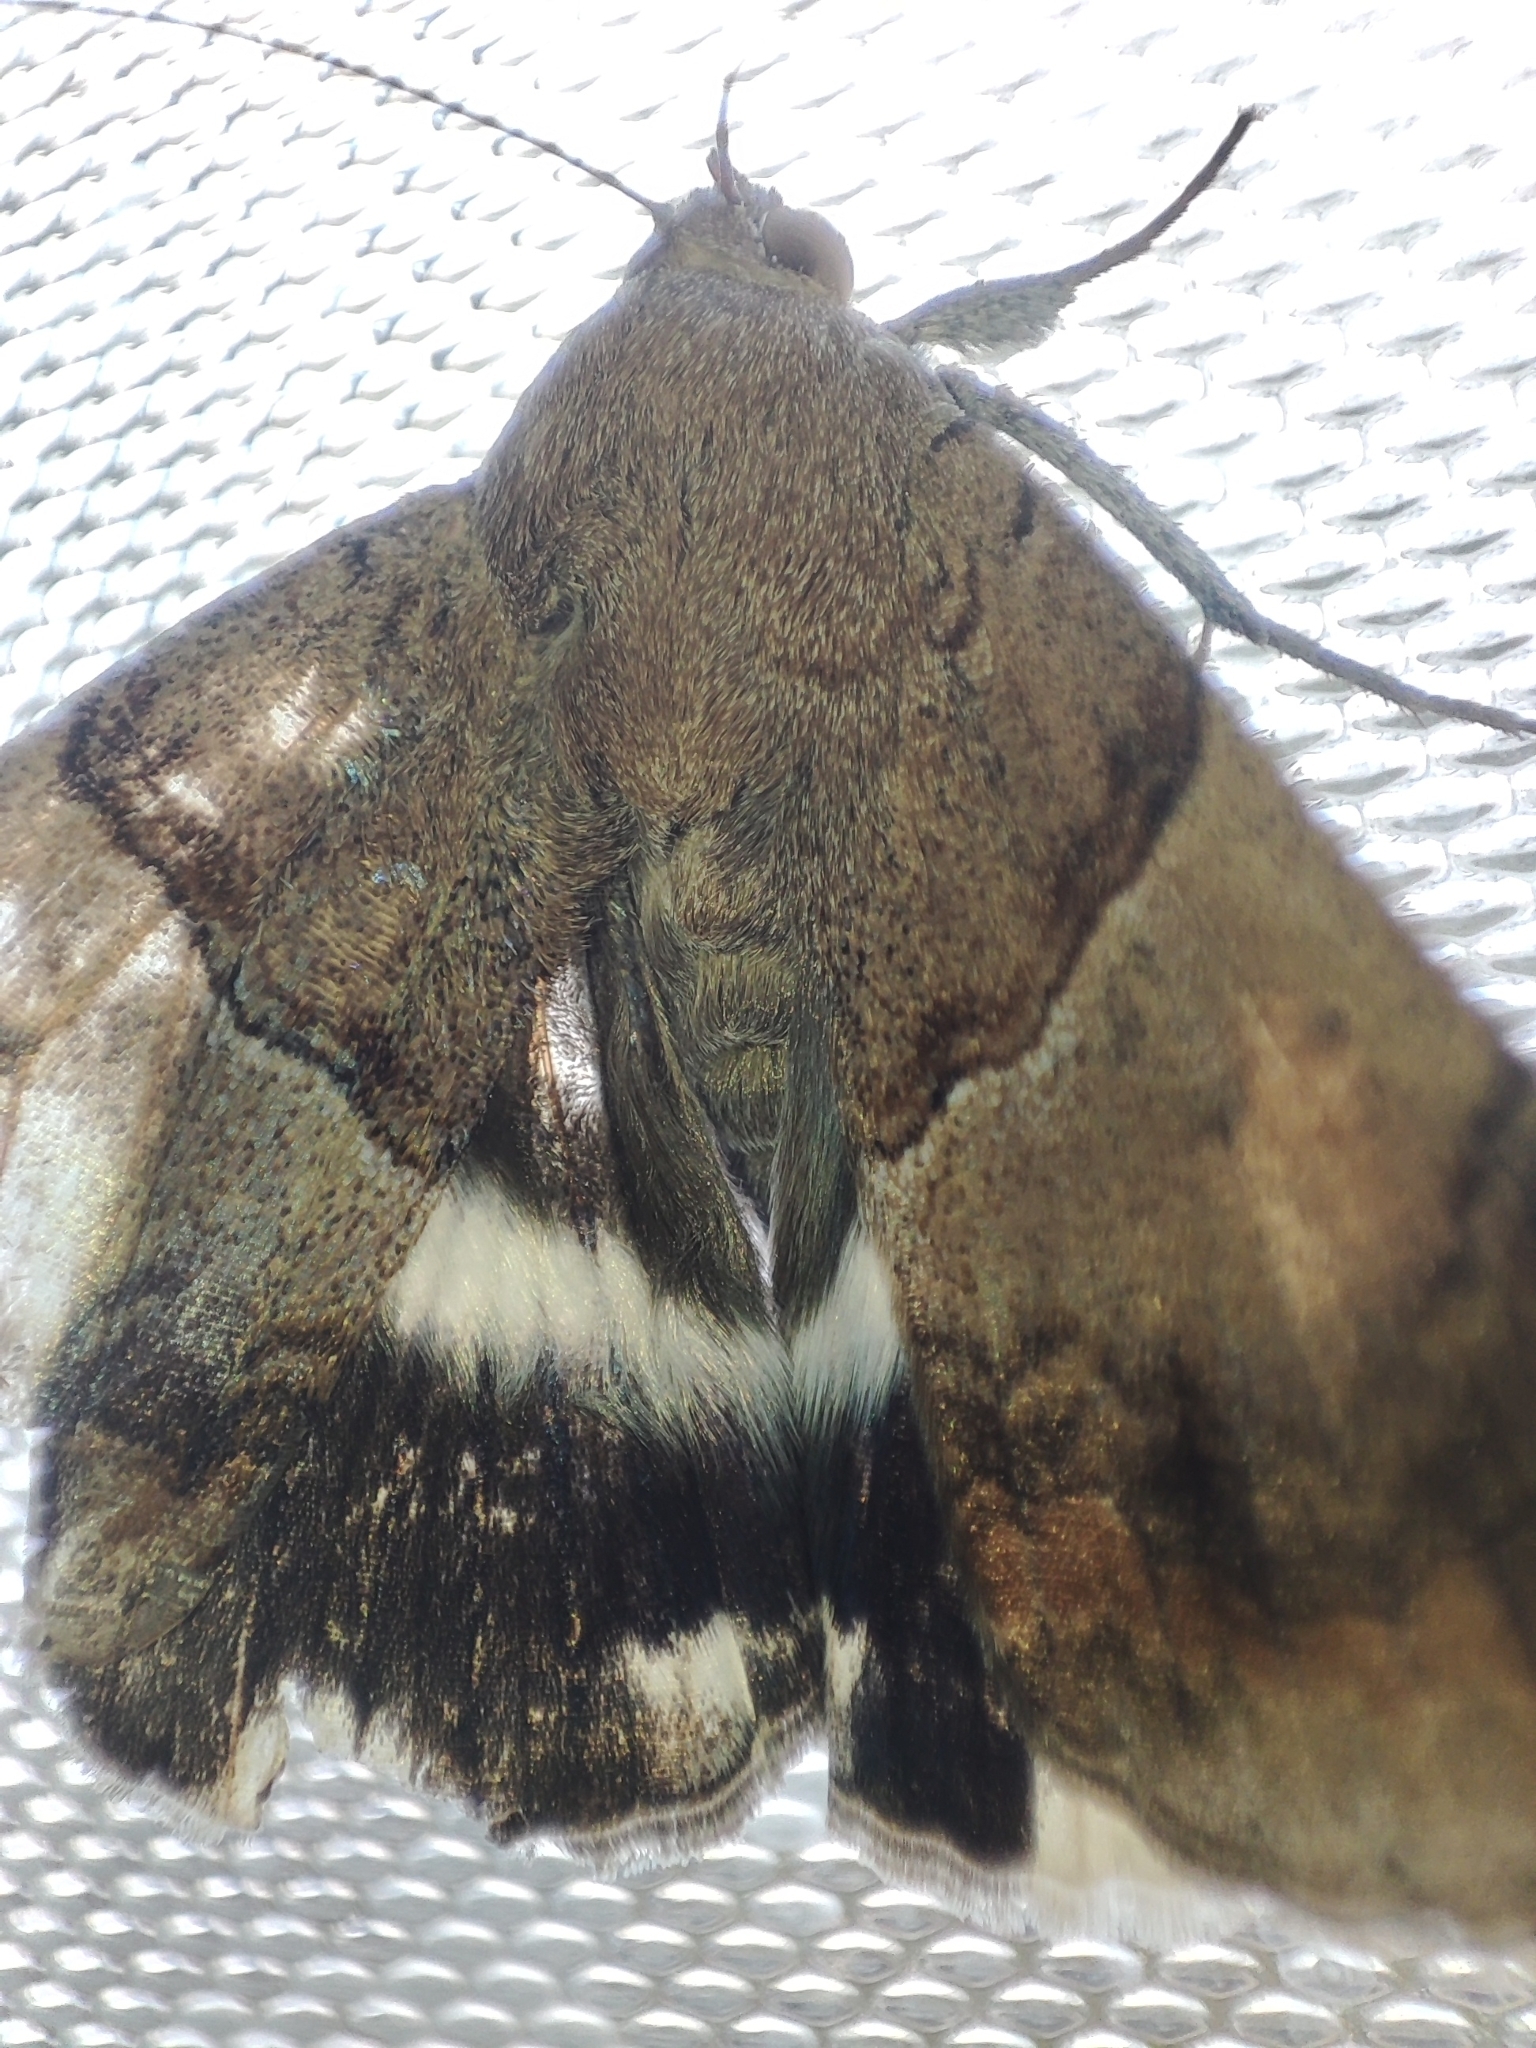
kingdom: Animalia
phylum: Arthropoda
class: Insecta
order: Lepidoptera
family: Erebidae
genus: Achaea
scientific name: Achaea janata
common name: Croton caterpillar
